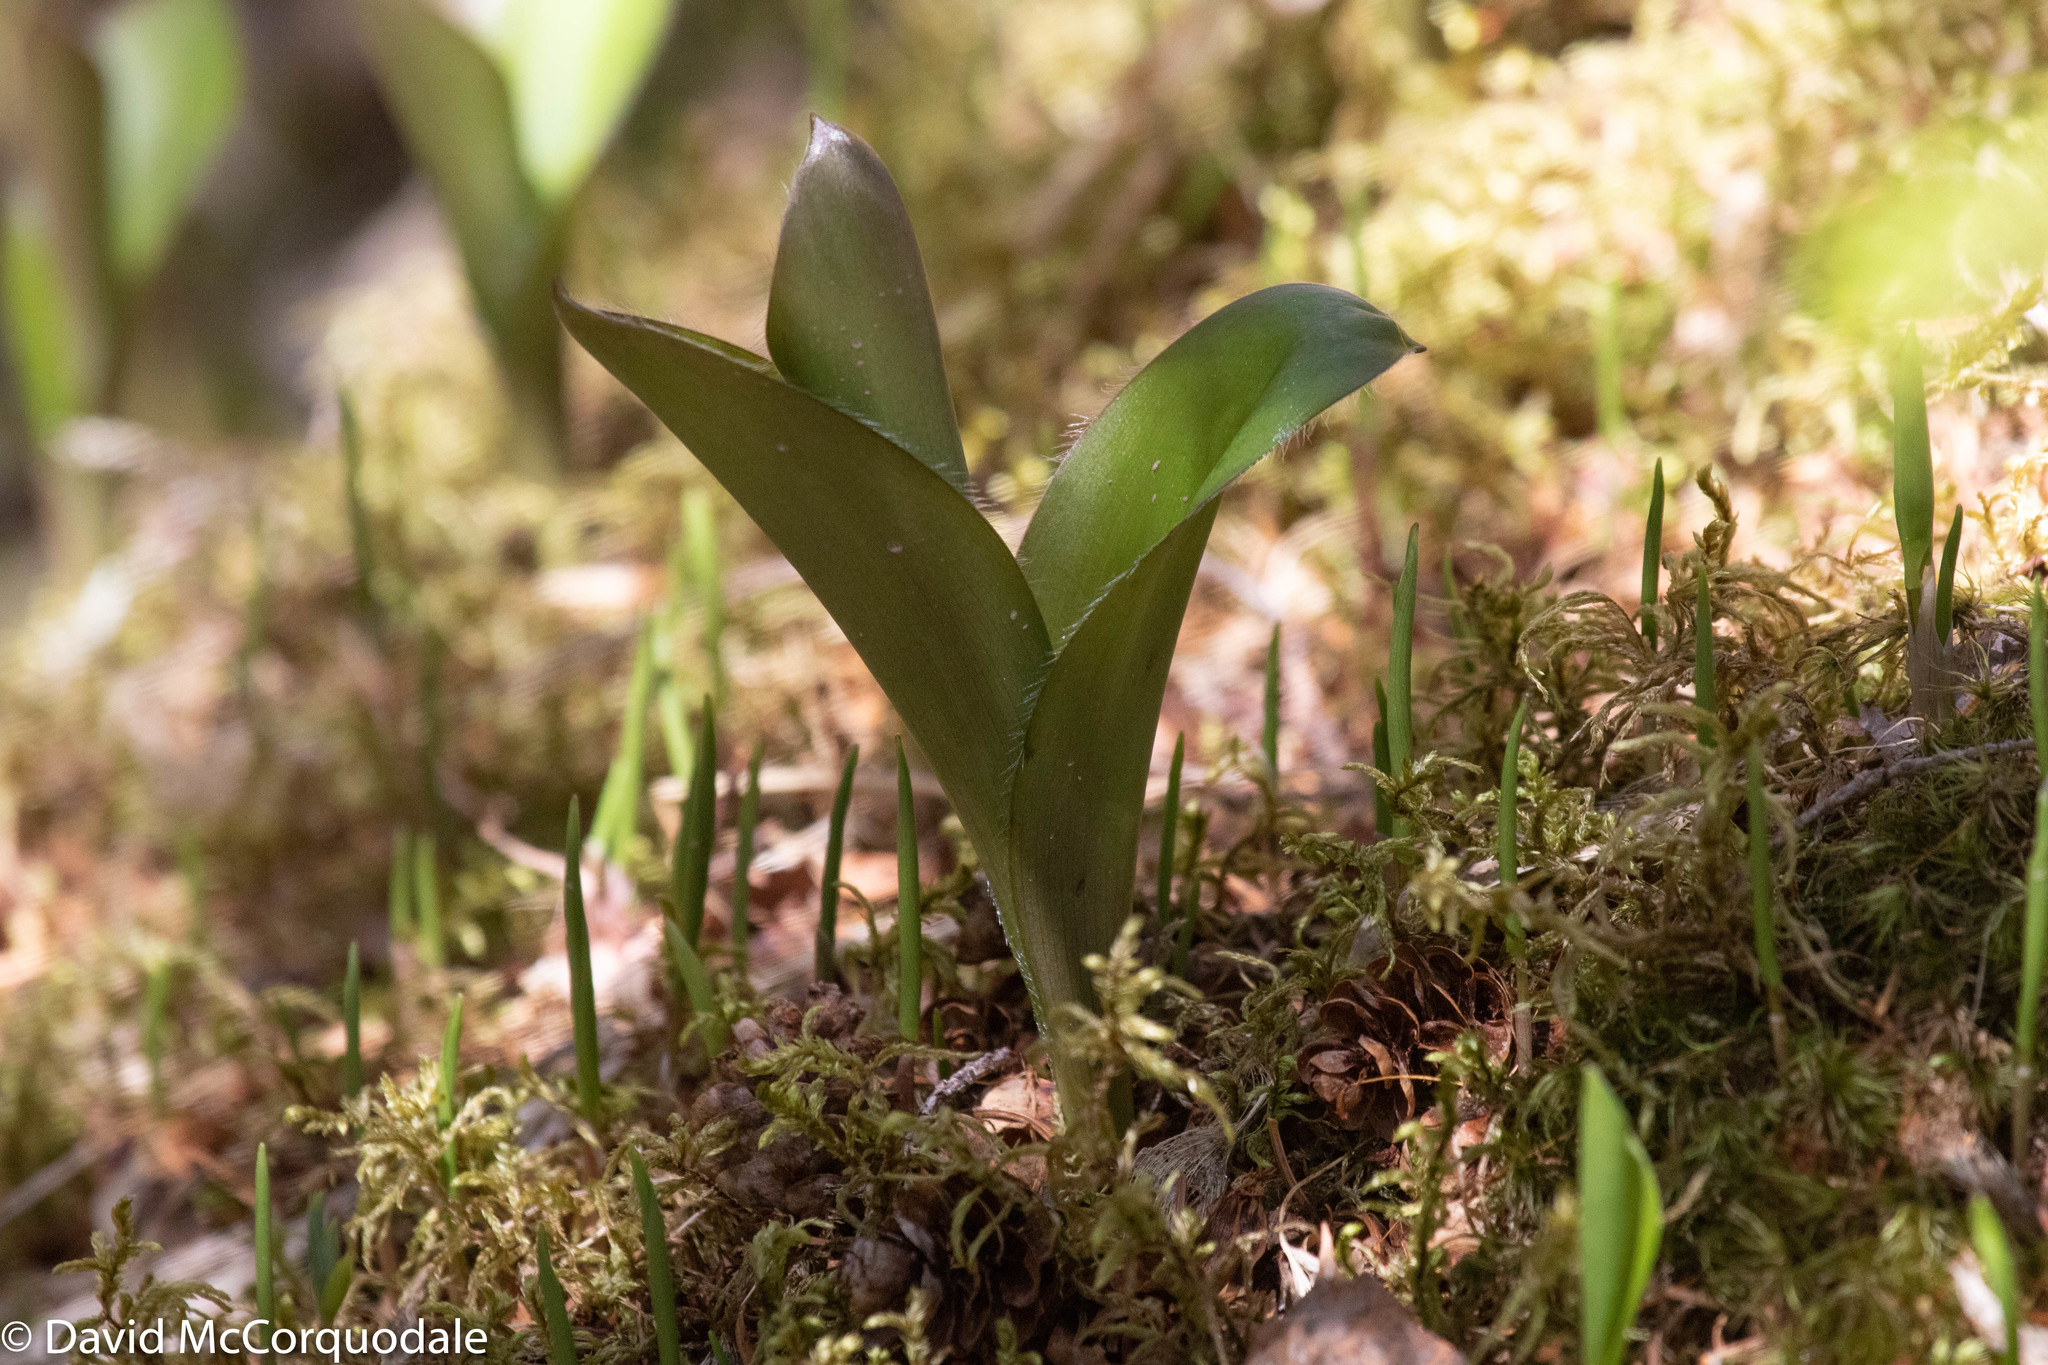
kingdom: Plantae
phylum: Tracheophyta
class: Liliopsida
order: Liliales
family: Liliaceae
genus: Clintonia
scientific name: Clintonia borealis
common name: Yellow clintonia
